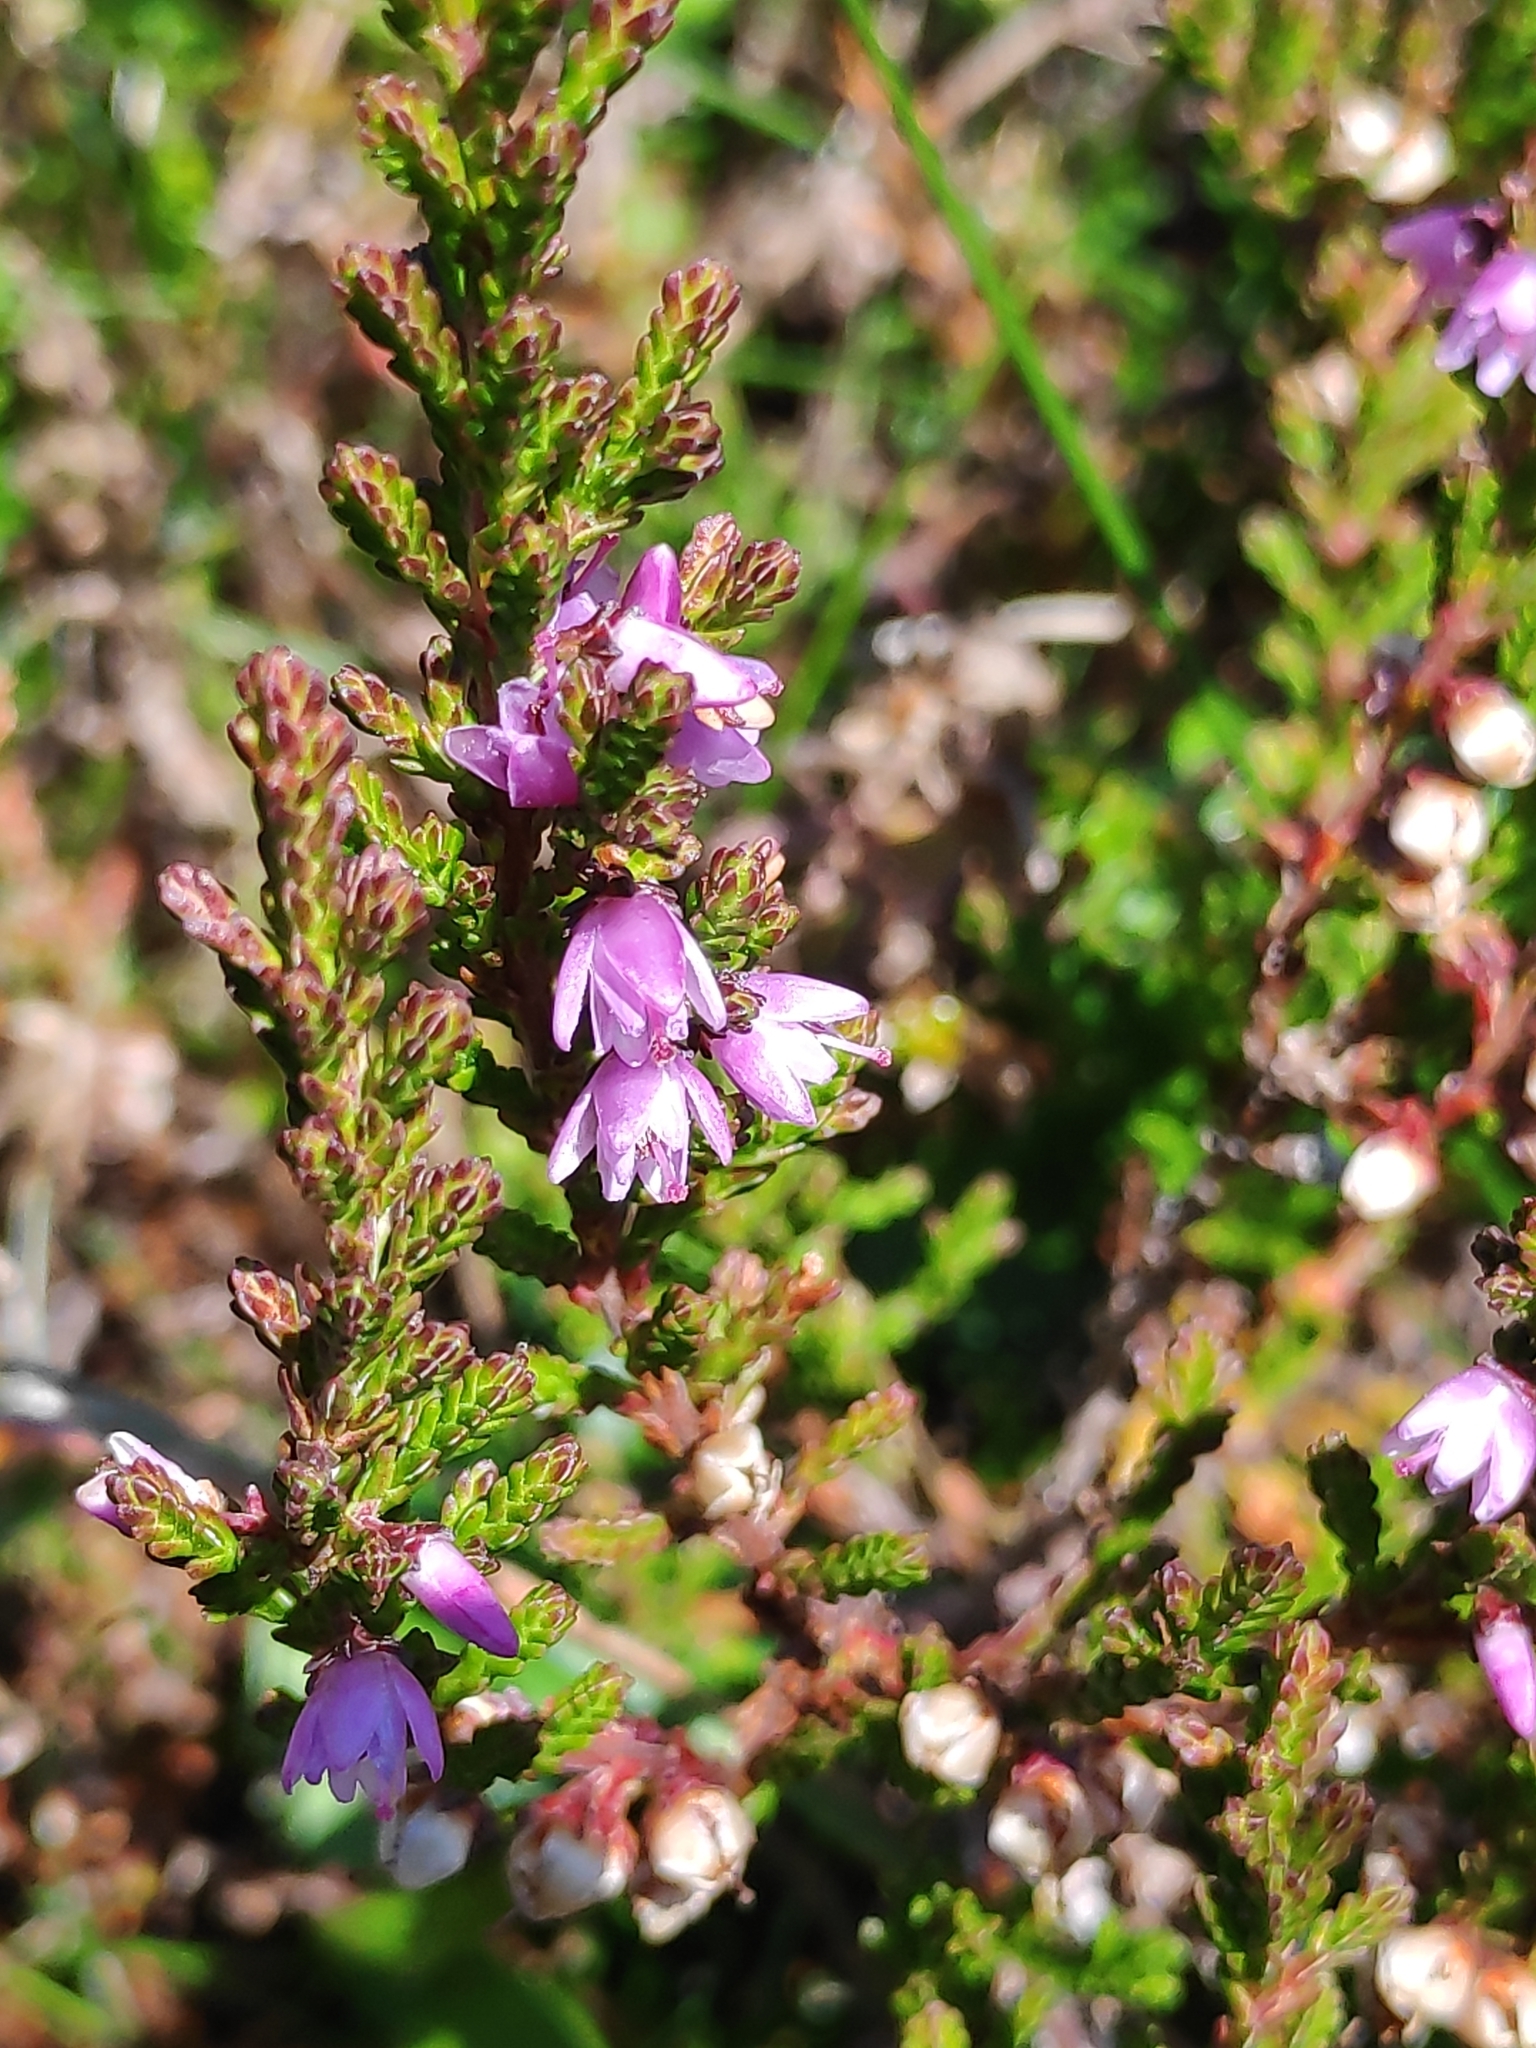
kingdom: Plantae
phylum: Tracheophyta
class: Magnoliopsida
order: Ericales
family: Ericaceae
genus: Calluna
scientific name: Calluna vulgaris
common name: Heather
